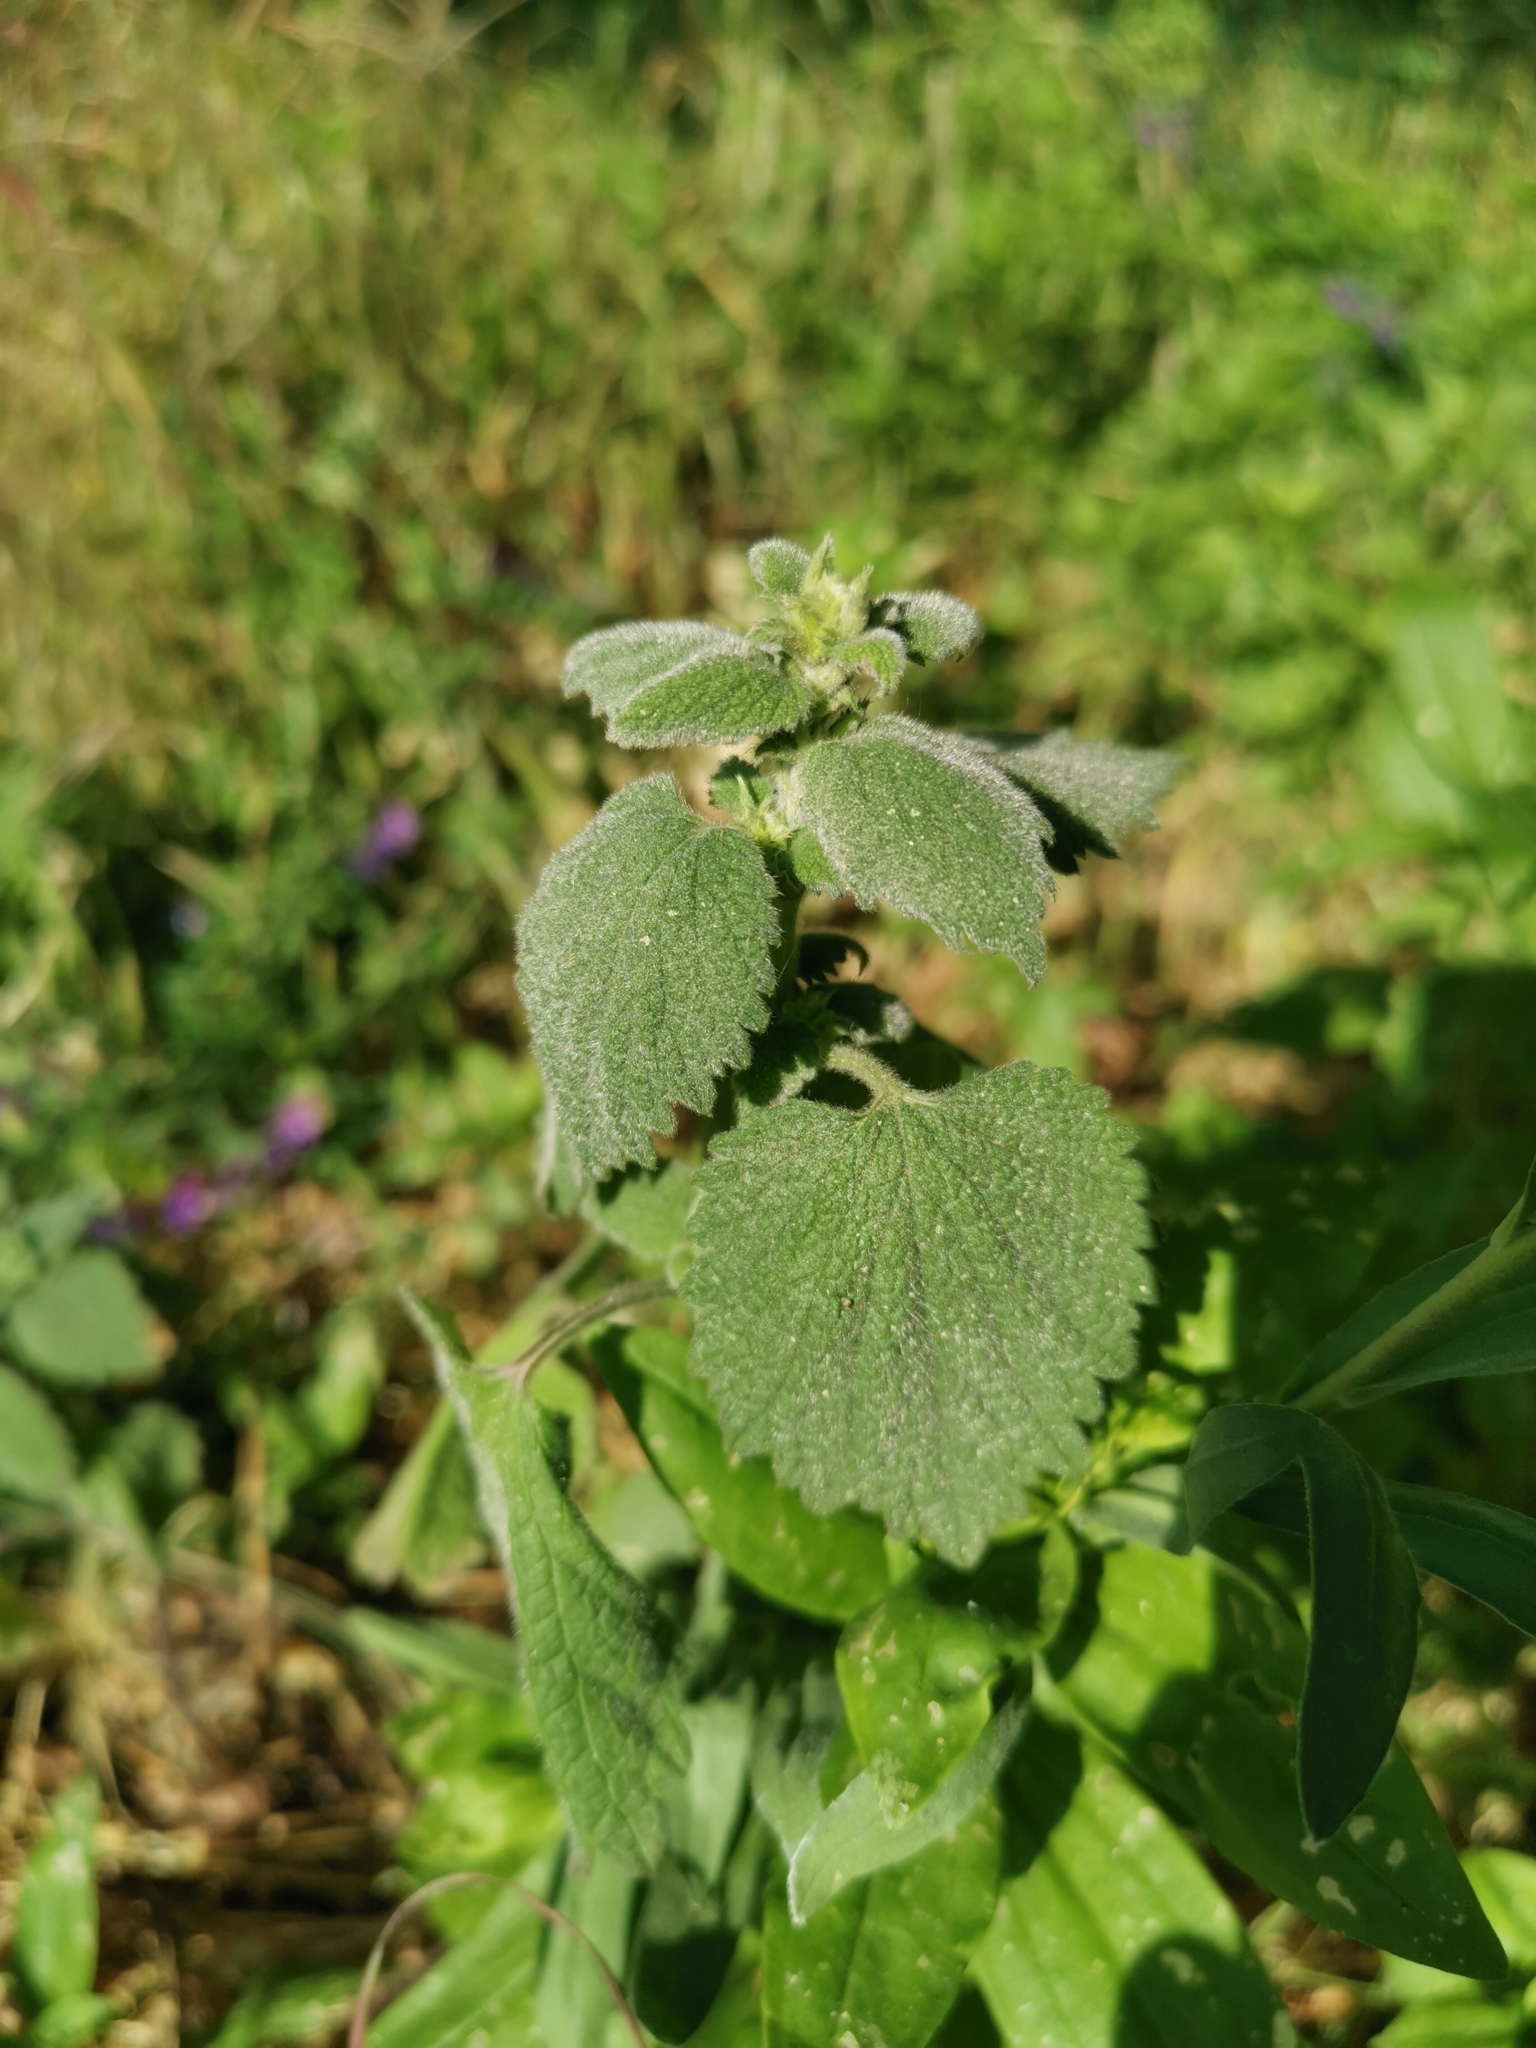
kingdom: Plantae
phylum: Tracheophyta
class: Magnoliopsida
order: Lamiales
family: Lamiaceae
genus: Ballota
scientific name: Ballota nigra
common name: Black horehound
